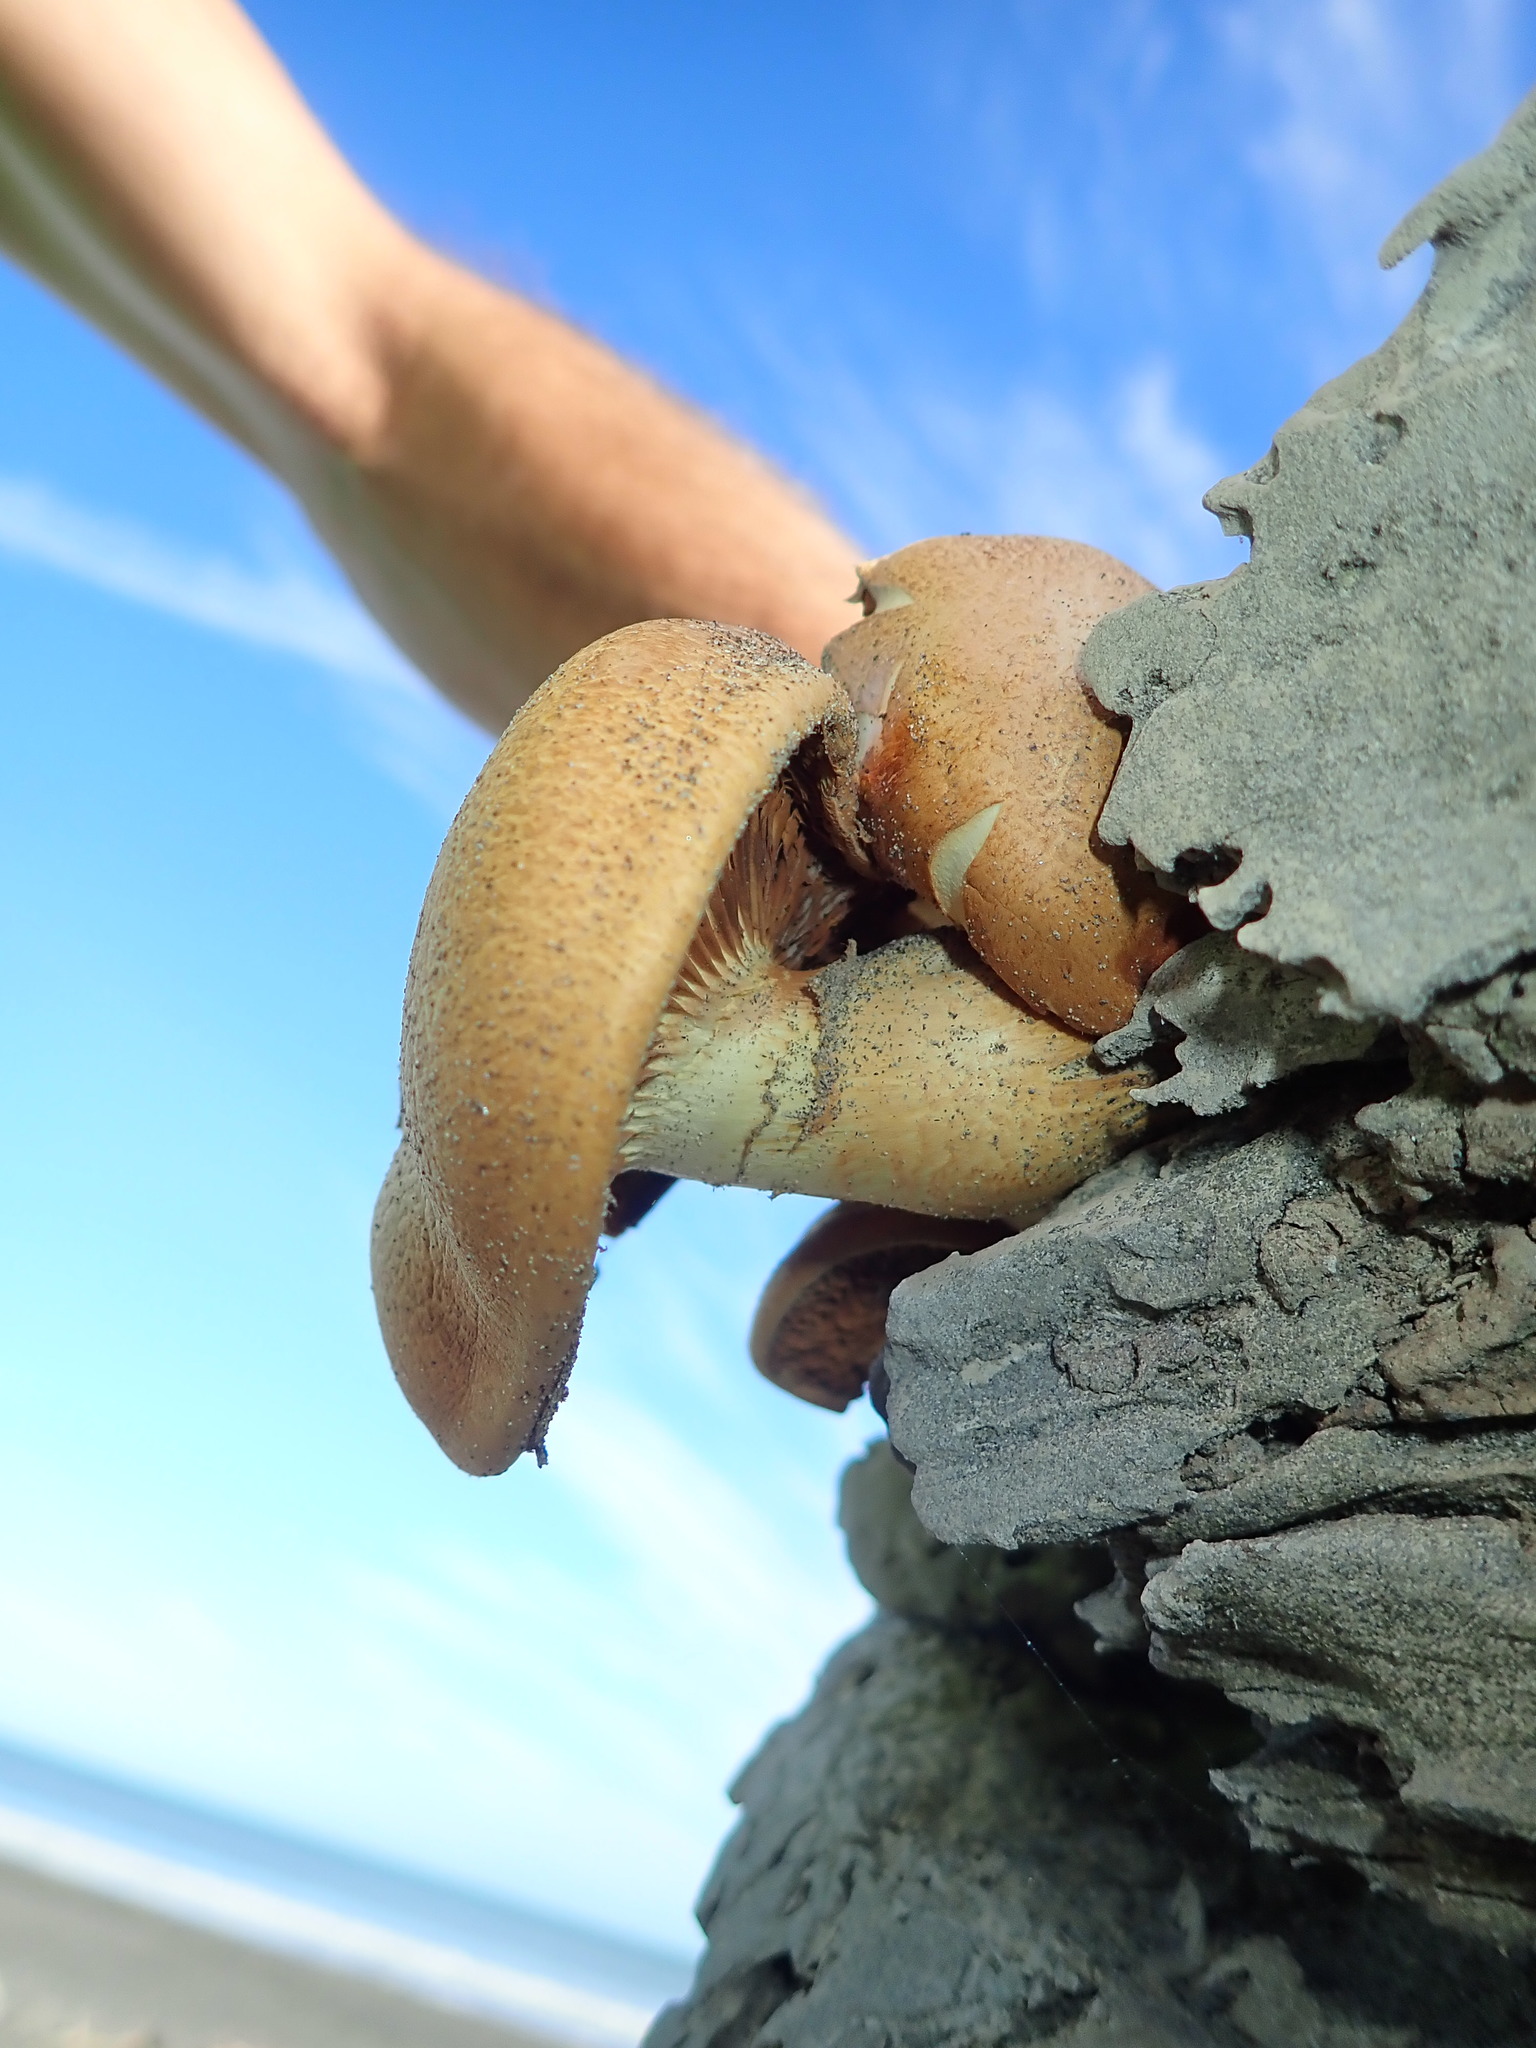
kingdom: Fungi
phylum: Basidiomycota
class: Agaricomycetes
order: Agaricales
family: Hymenogastraceae
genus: Gymnopilus
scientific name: Gymnopilus junonius
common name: Spectacular rustgill
